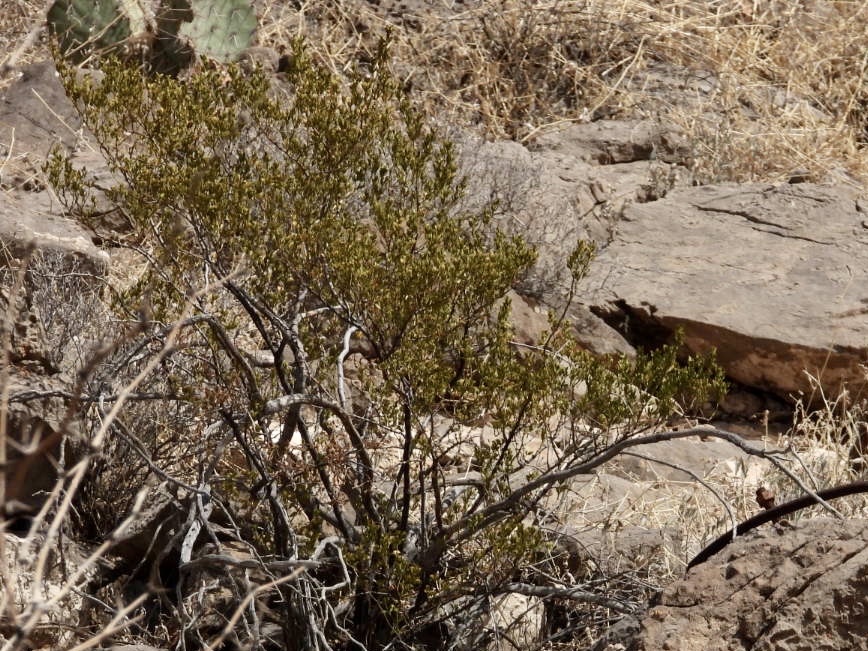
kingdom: Plantae
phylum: Tracheophyta
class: Magnoliopsida
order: Zygophyllales
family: Zygophyllaceae
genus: Larrea
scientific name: Larrea tridentata
